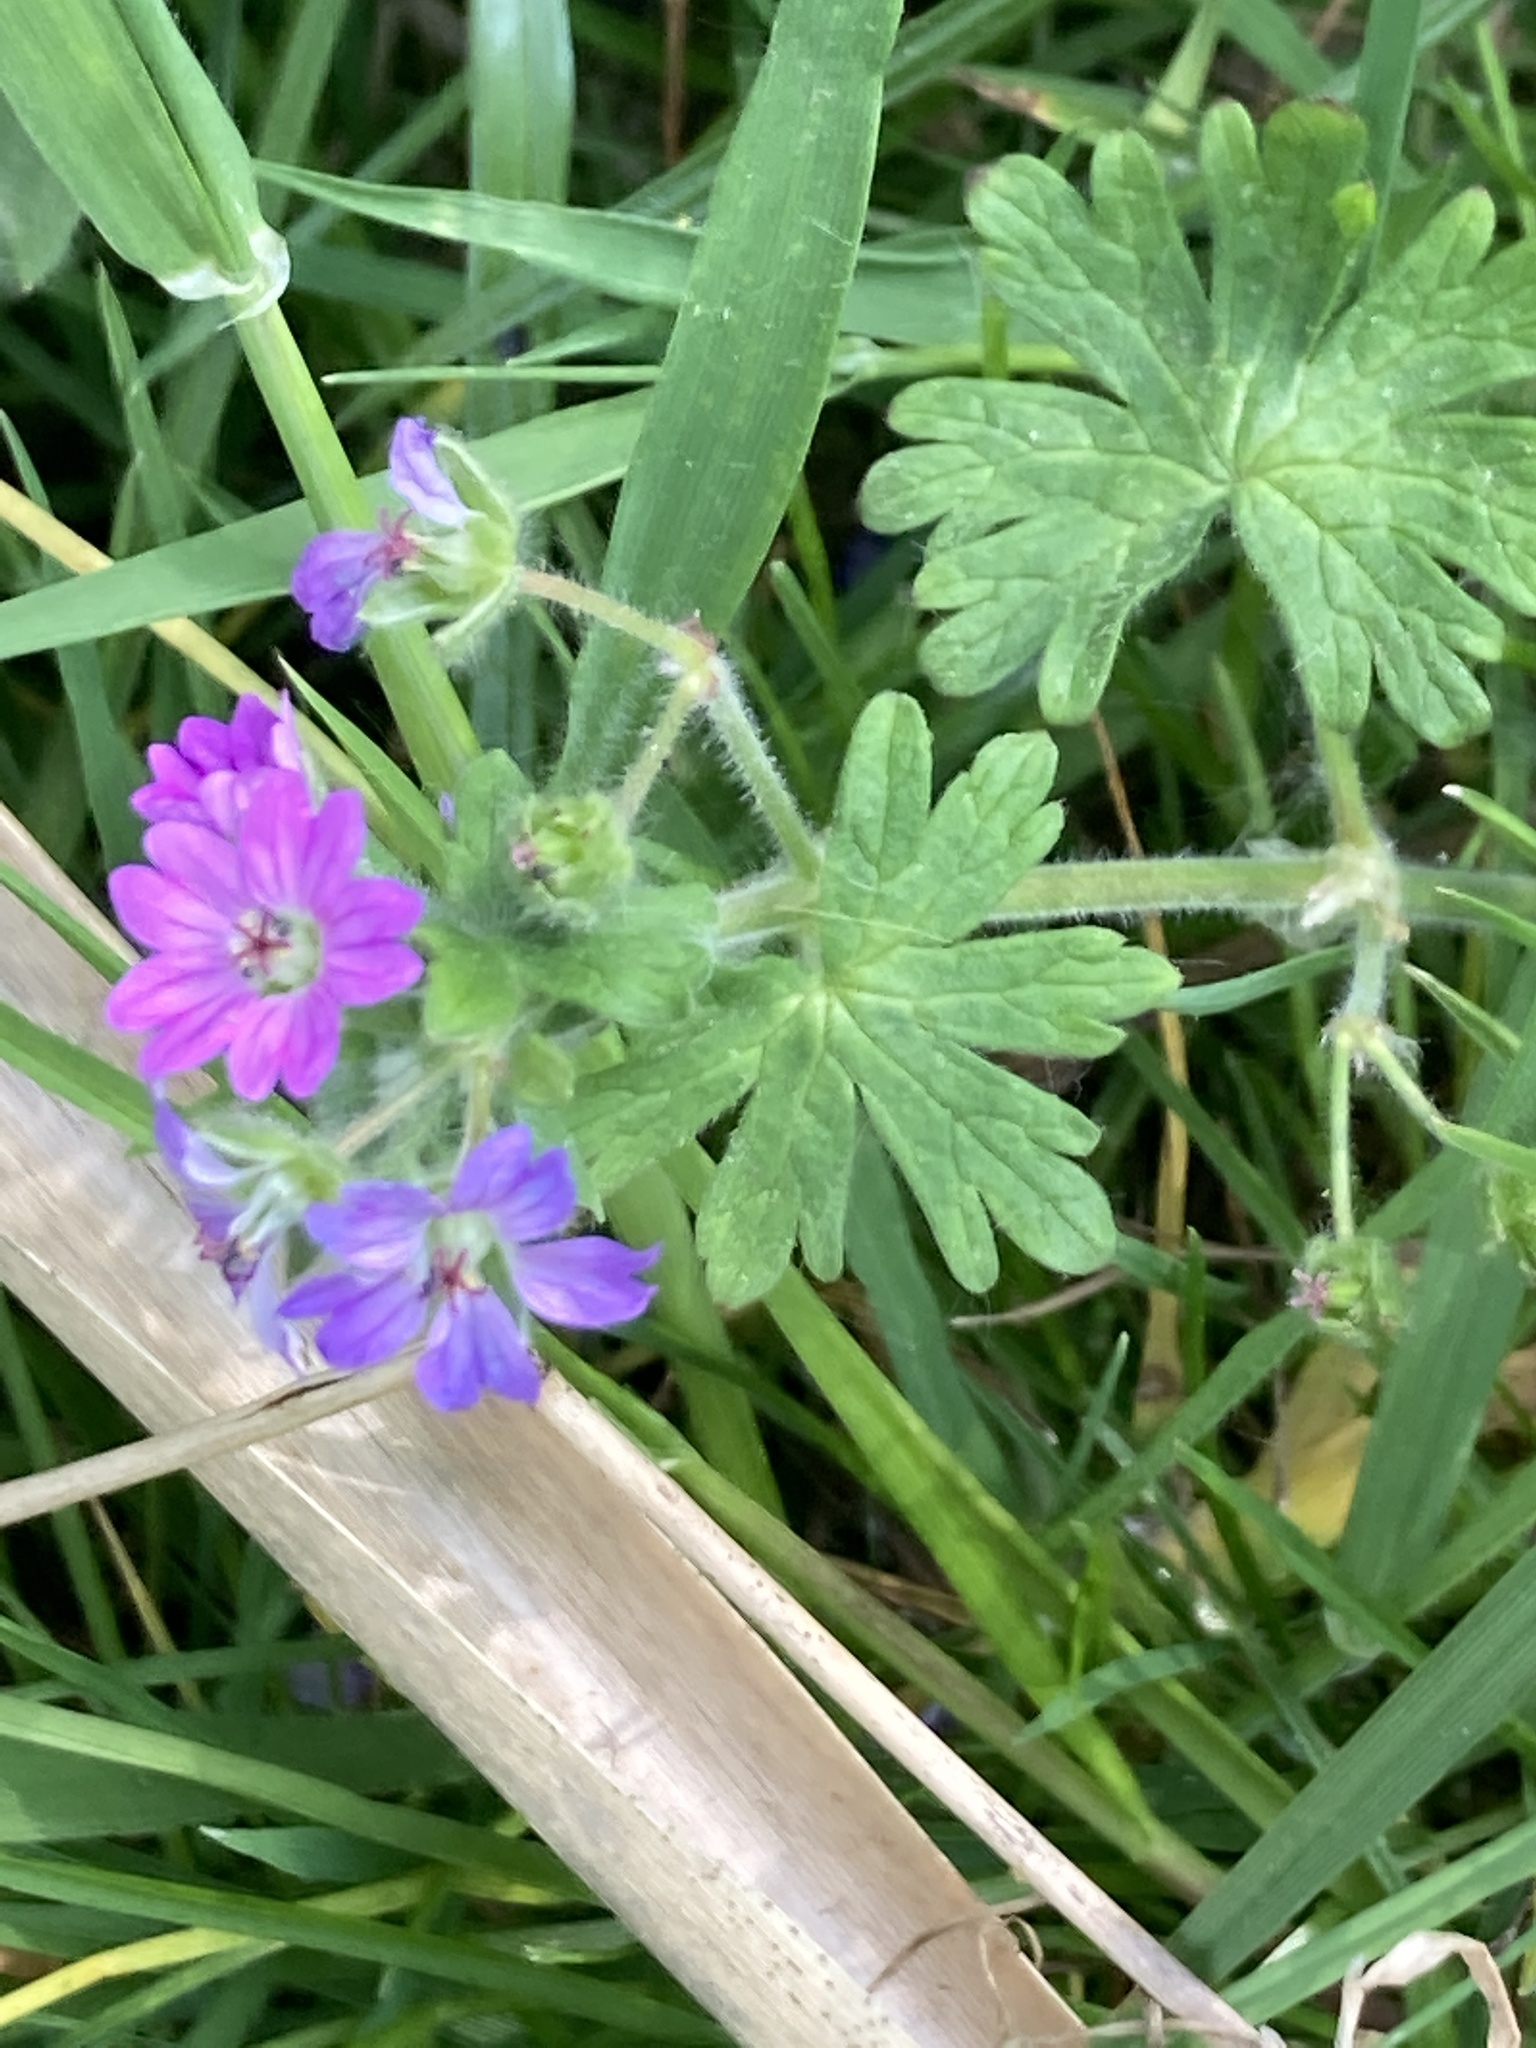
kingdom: Plantae
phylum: Tracheophyta
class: Magnoliopsida
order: Geraniales
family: Geraniaceae
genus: Geranium
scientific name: Geranium molle
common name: Dove's-foot crane's-bill
